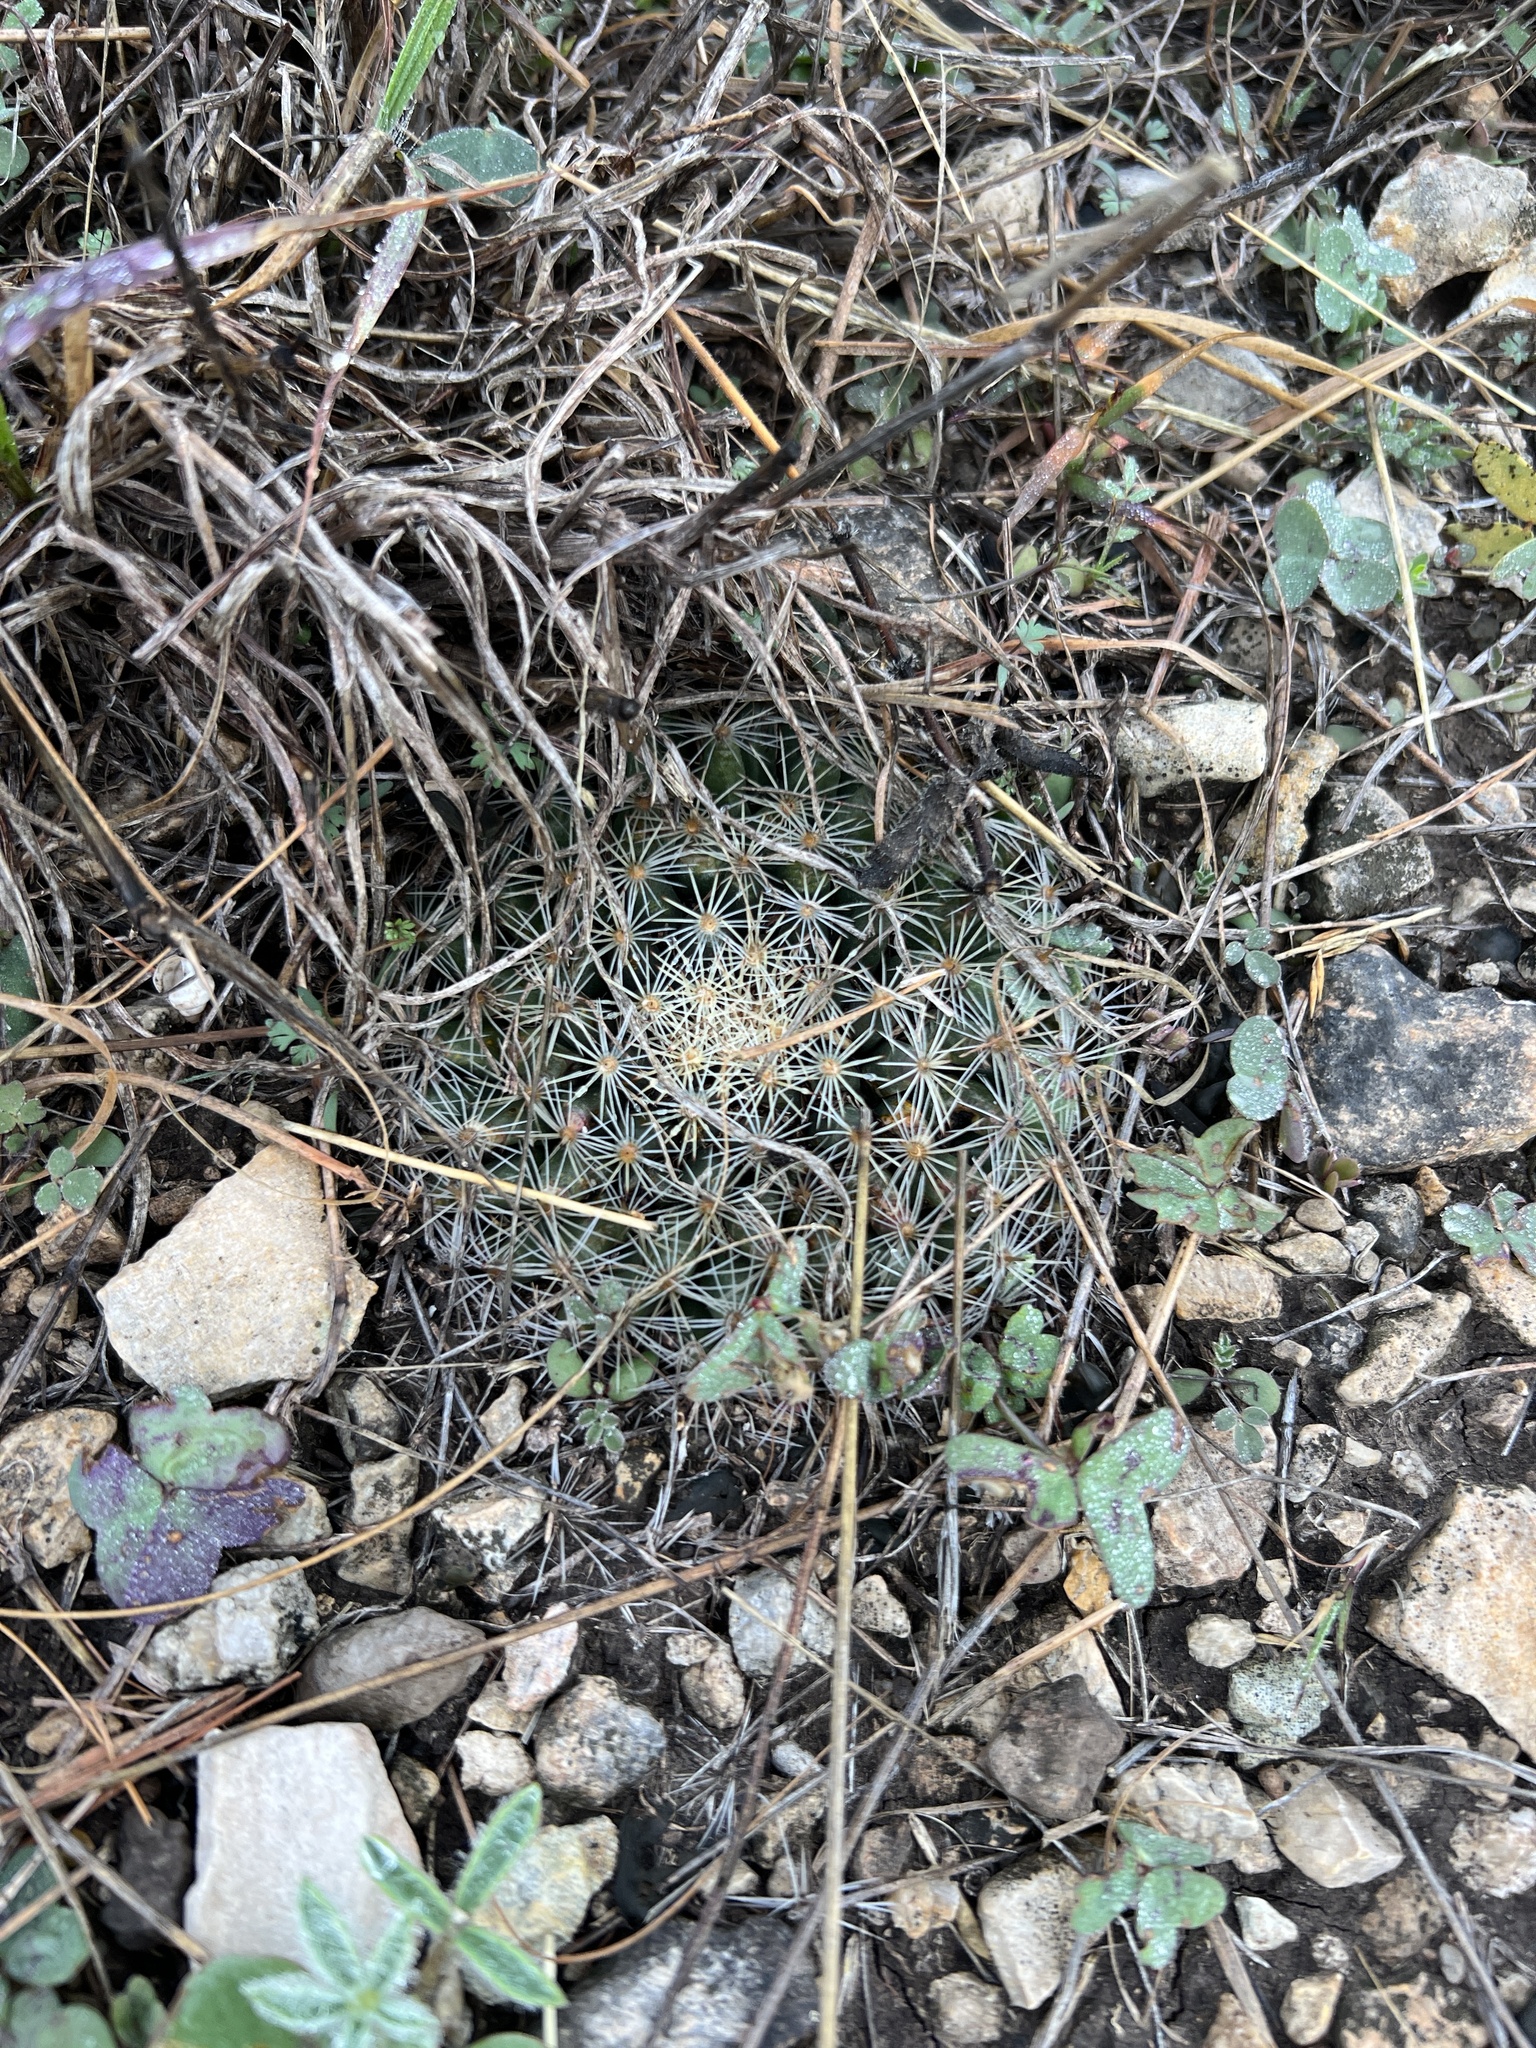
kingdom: Plantae
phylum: Tracheophyta
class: Magnoliopsida
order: Caryophyllales
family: Cactaceae
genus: Mammillaria
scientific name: Mammillaria heyderi
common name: Little nipple cactus
